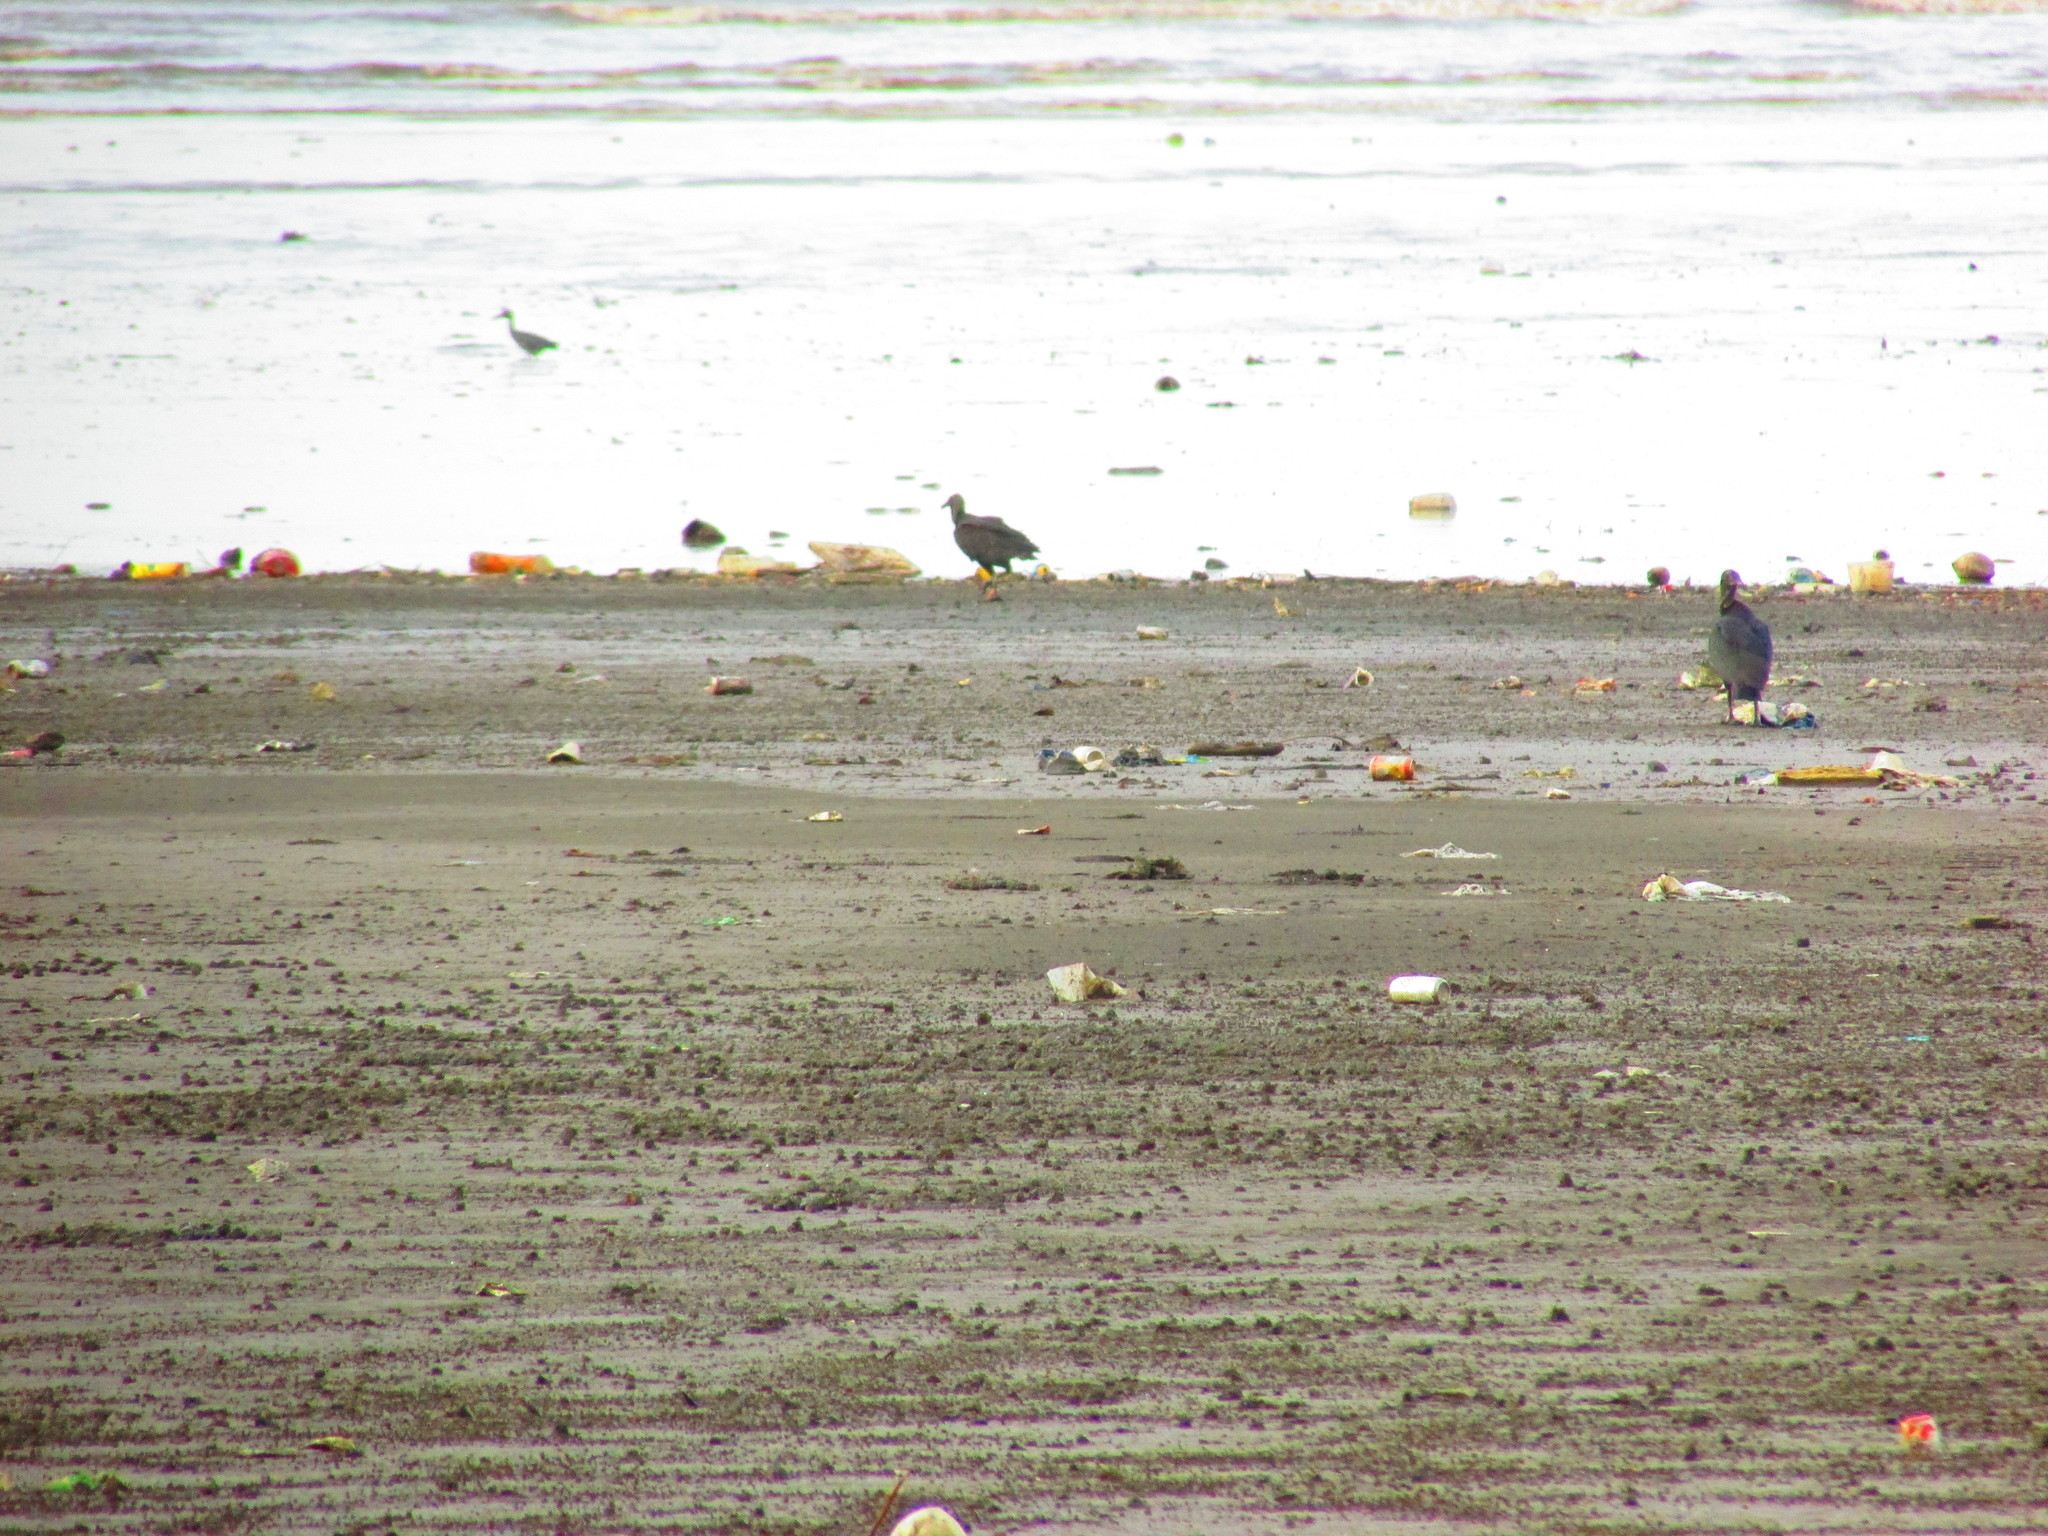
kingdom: Animalia
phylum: Chordata
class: Aves
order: Accipitriformes
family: Cathartidae
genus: Coragyps
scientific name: Coragyps atratus
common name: Black vulture
